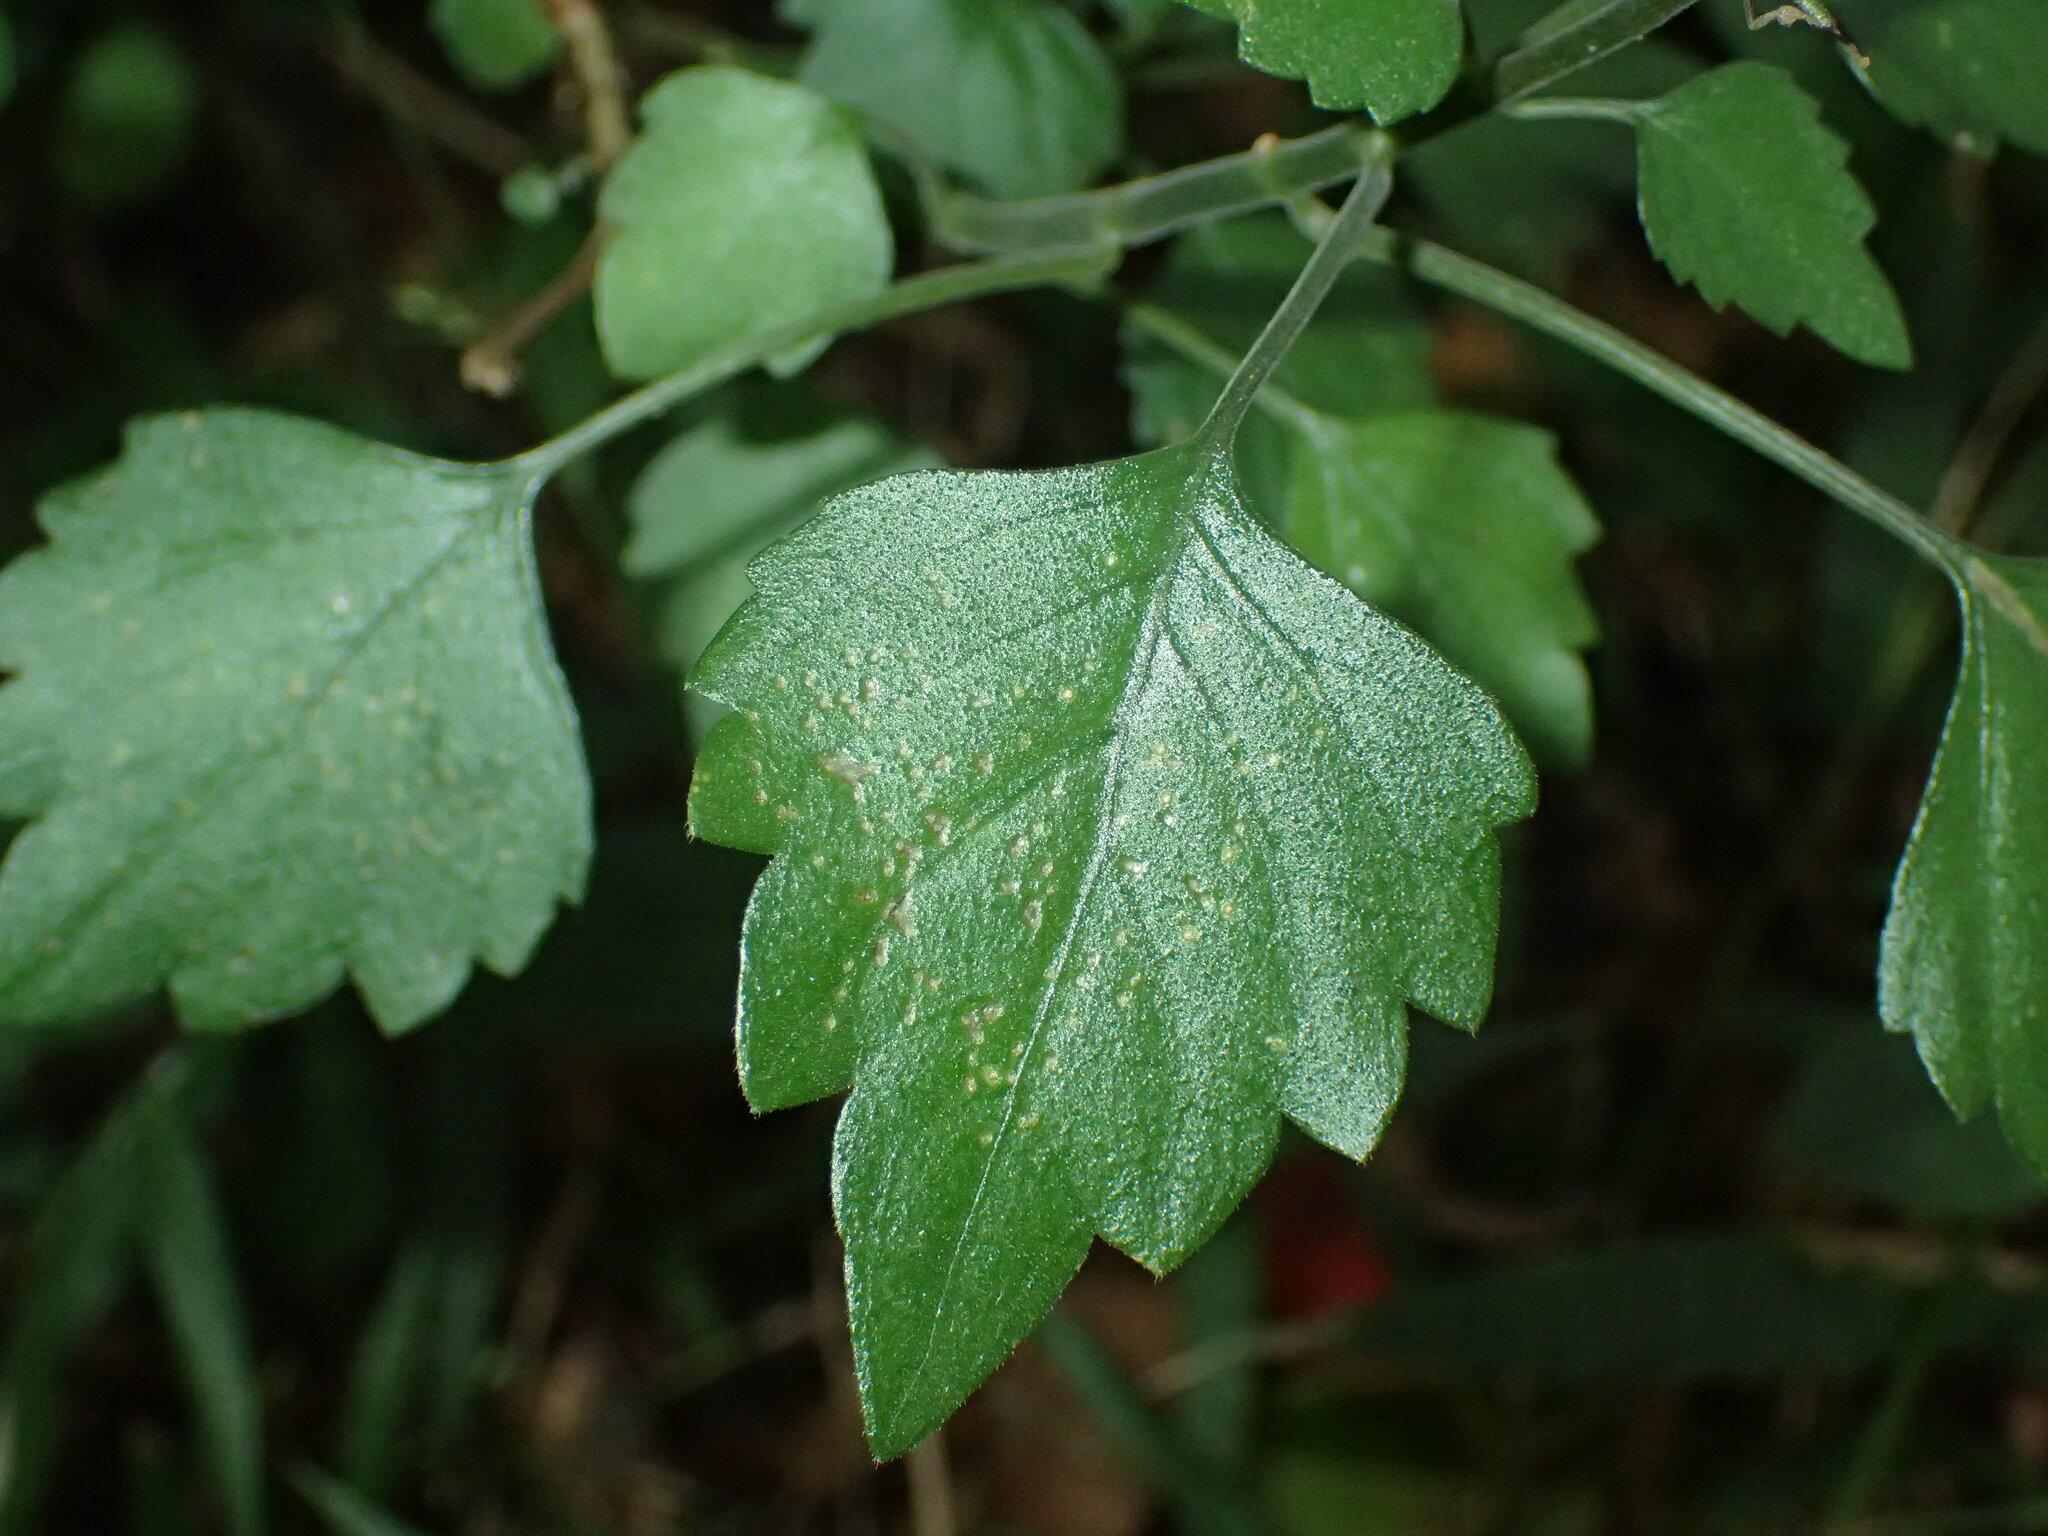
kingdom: Plantae
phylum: Tracheophyta
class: Magnoliopsida
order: Lamiales
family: Lamiaceae
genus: Plectranthus
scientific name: Plectranthus saccatus
